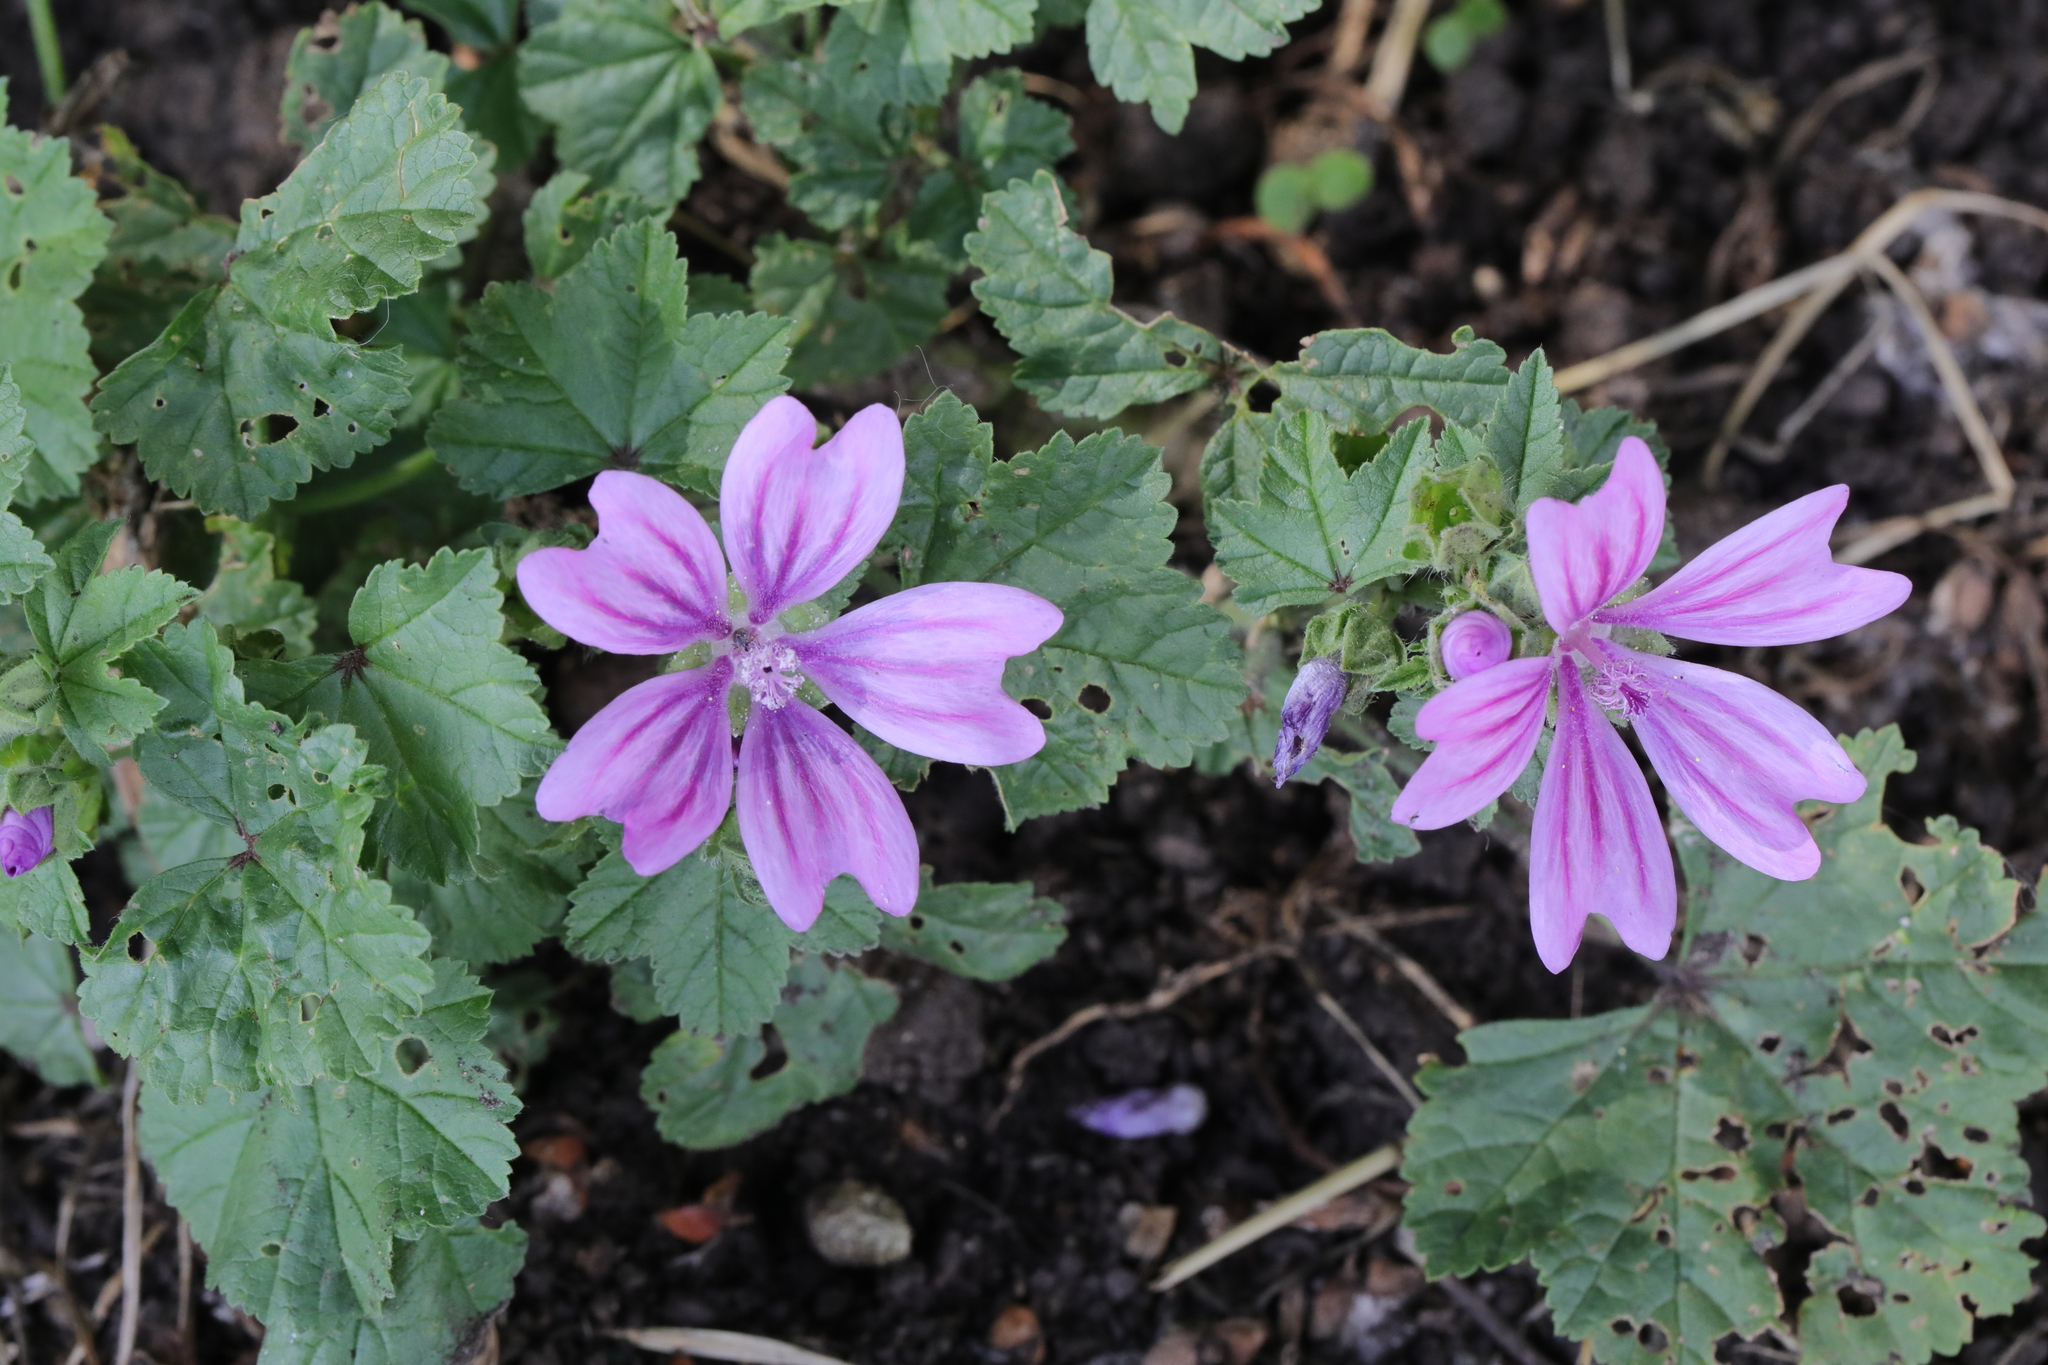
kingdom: Plantae
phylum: Tracheophyta
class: Magnoliopsida
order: Malvales
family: Malvaceae
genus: Malva
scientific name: Malva sylvestris
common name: Common mallow
